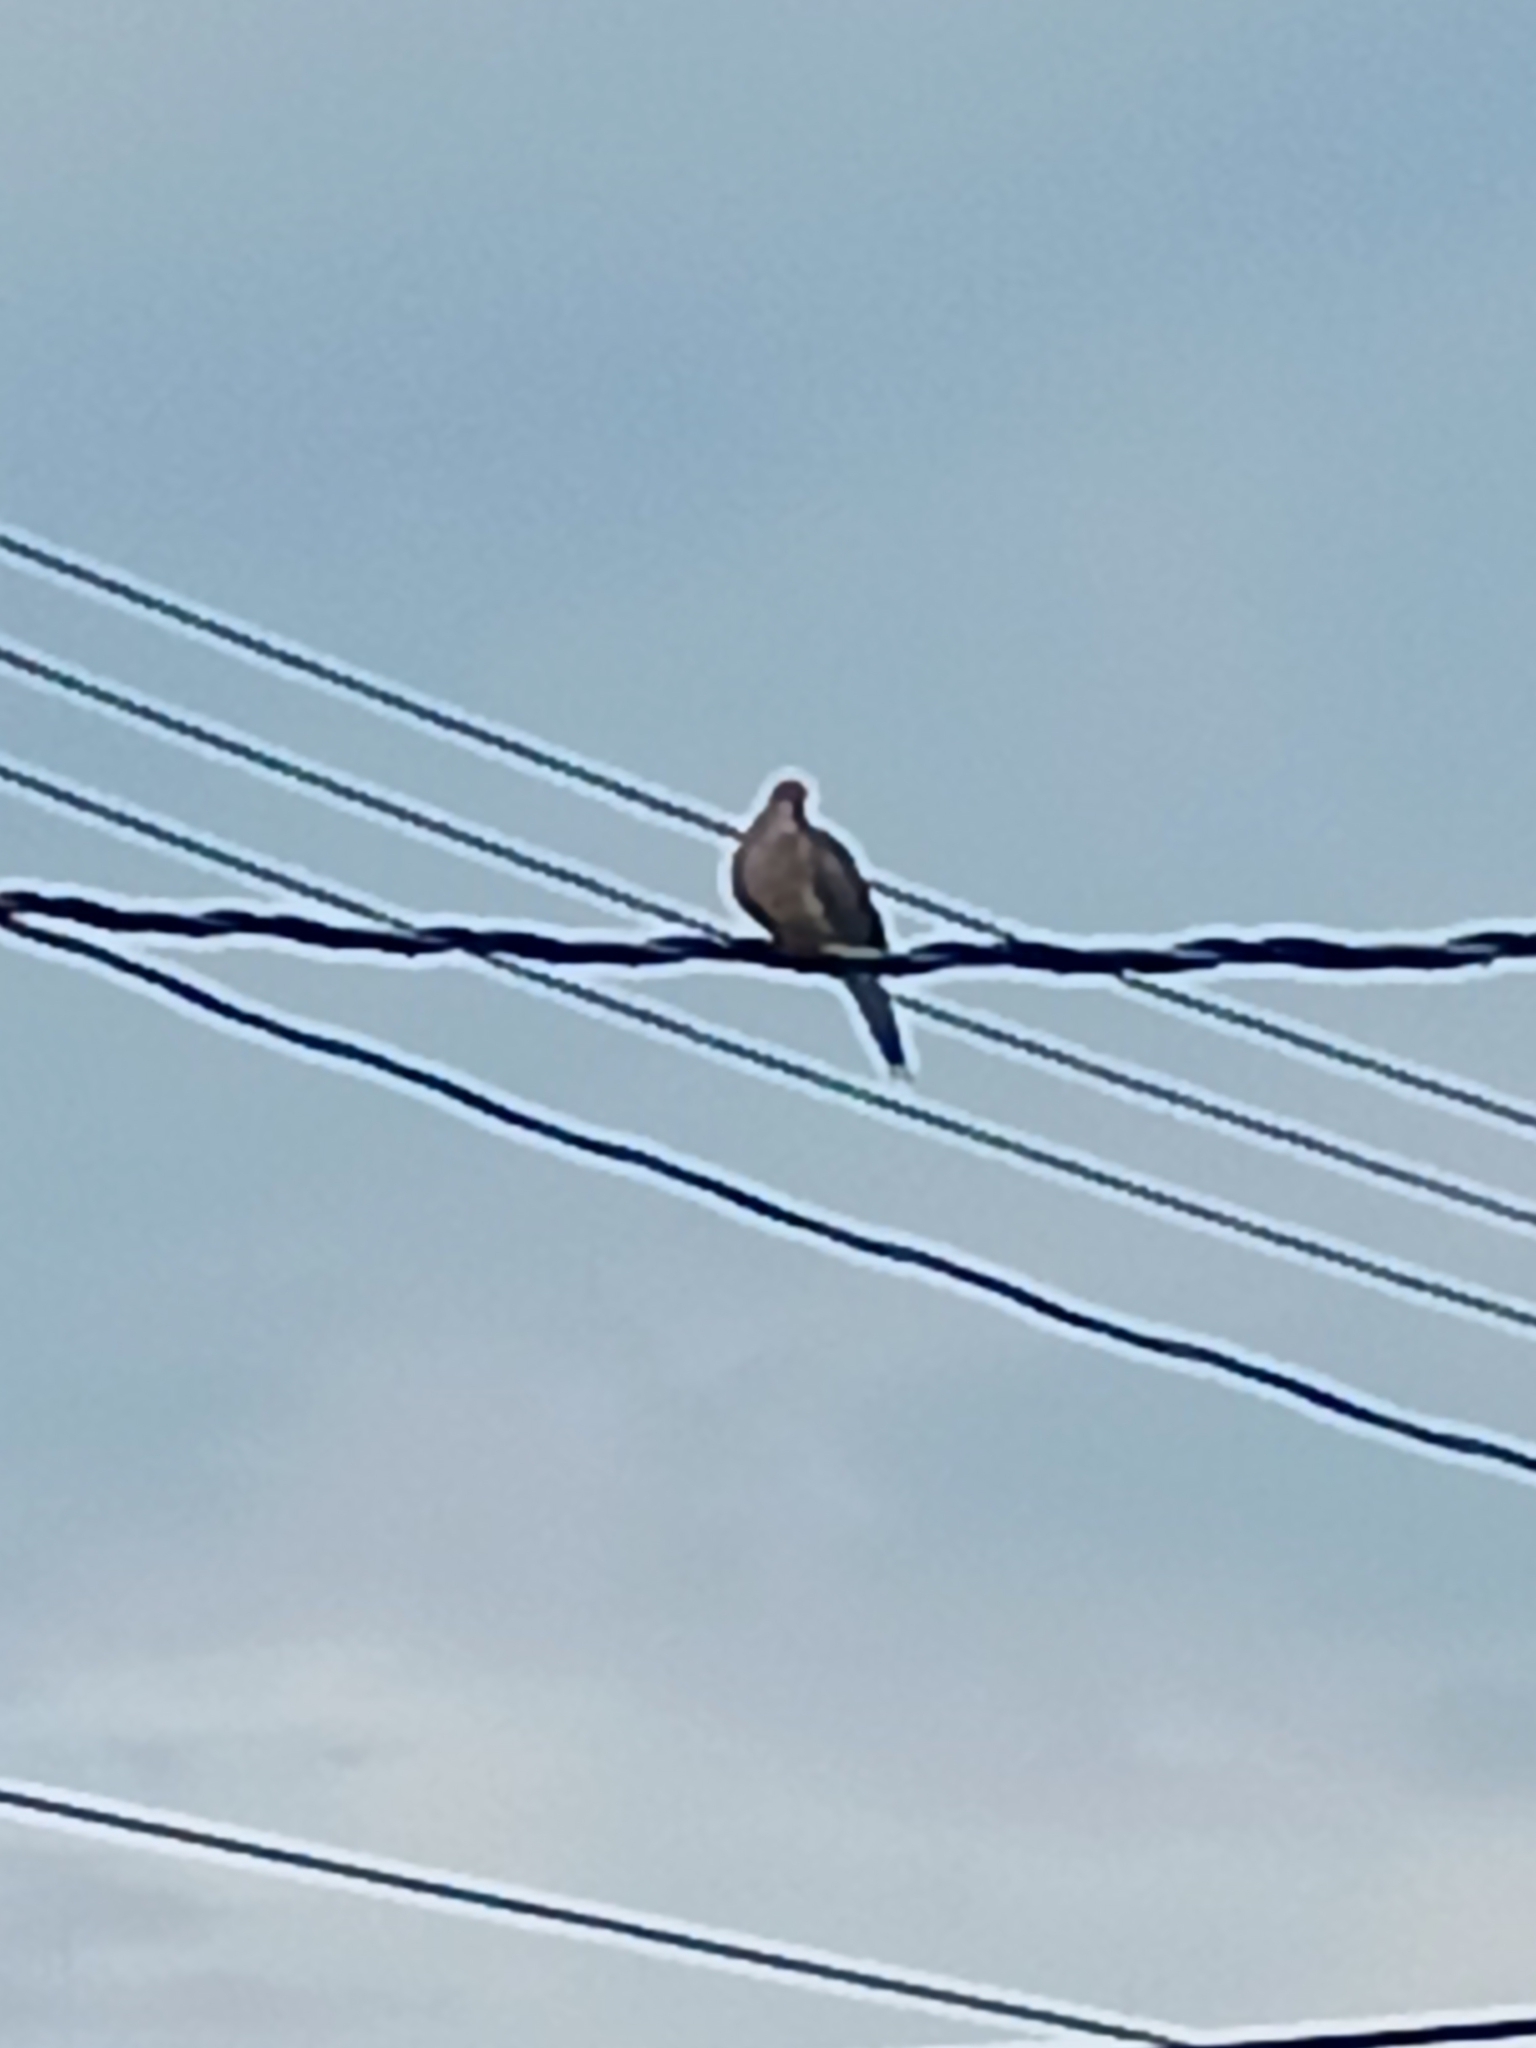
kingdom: Animalia
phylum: Chordata
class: Aves
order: Columbiformes
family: Columbidae
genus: Zenaida
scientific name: Zenaida macroura
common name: Mourning dove
